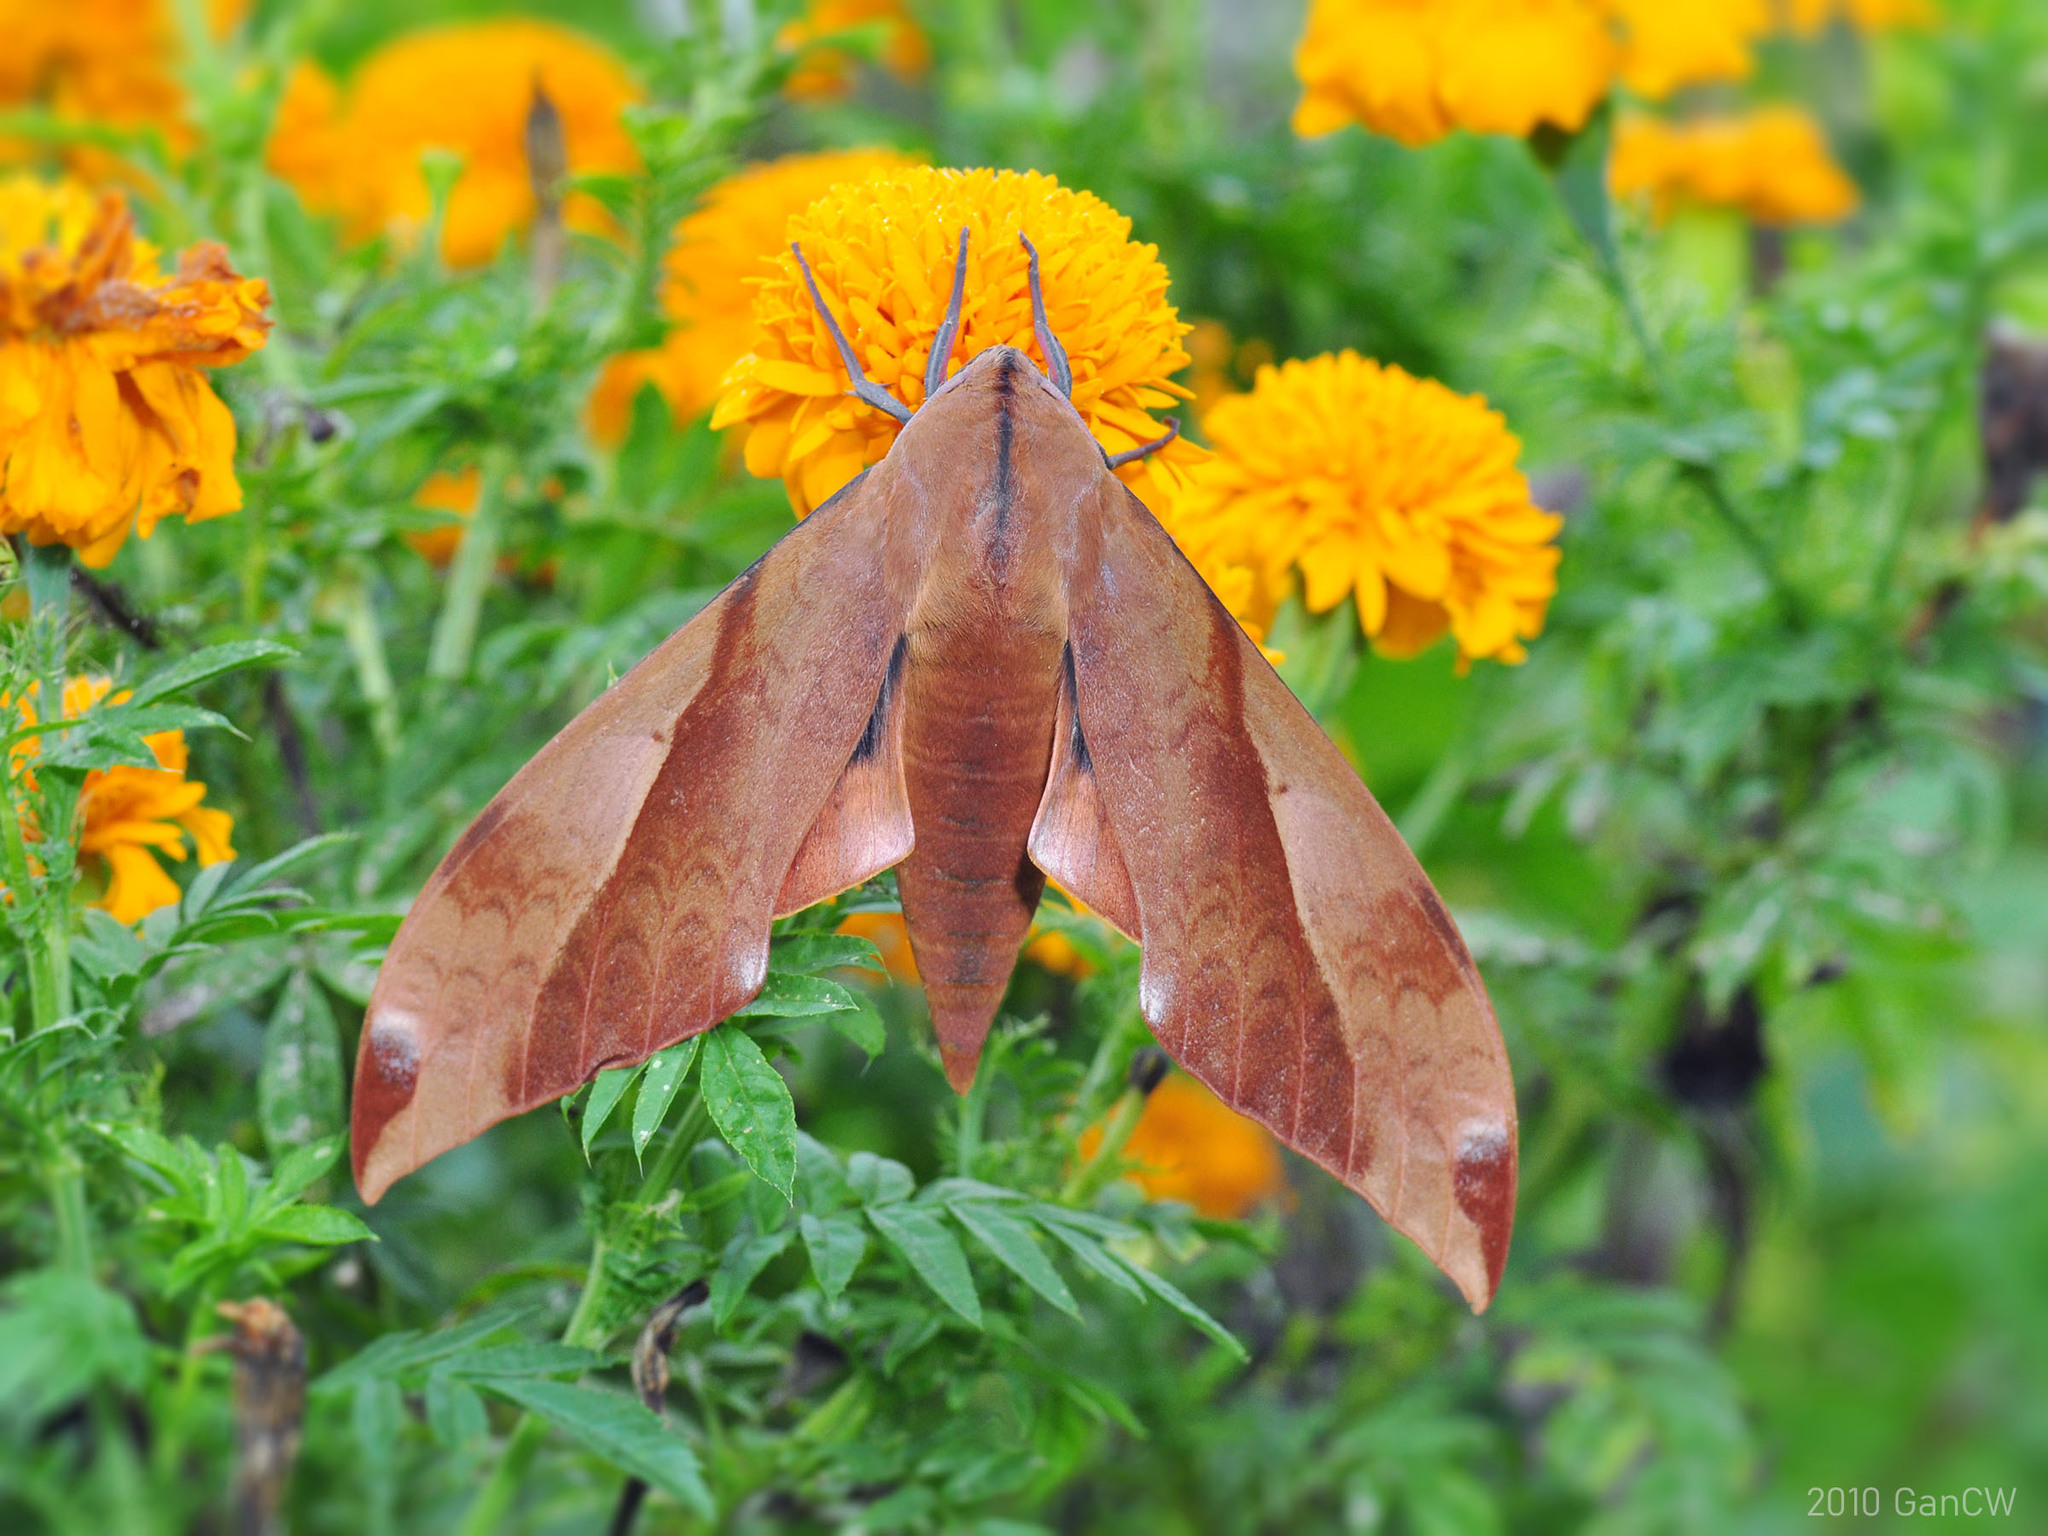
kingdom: Animalia
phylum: Arthropoda
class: Insecta
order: Lepidoptera
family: Sphingidae
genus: Clanis
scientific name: Clanis undulosa
